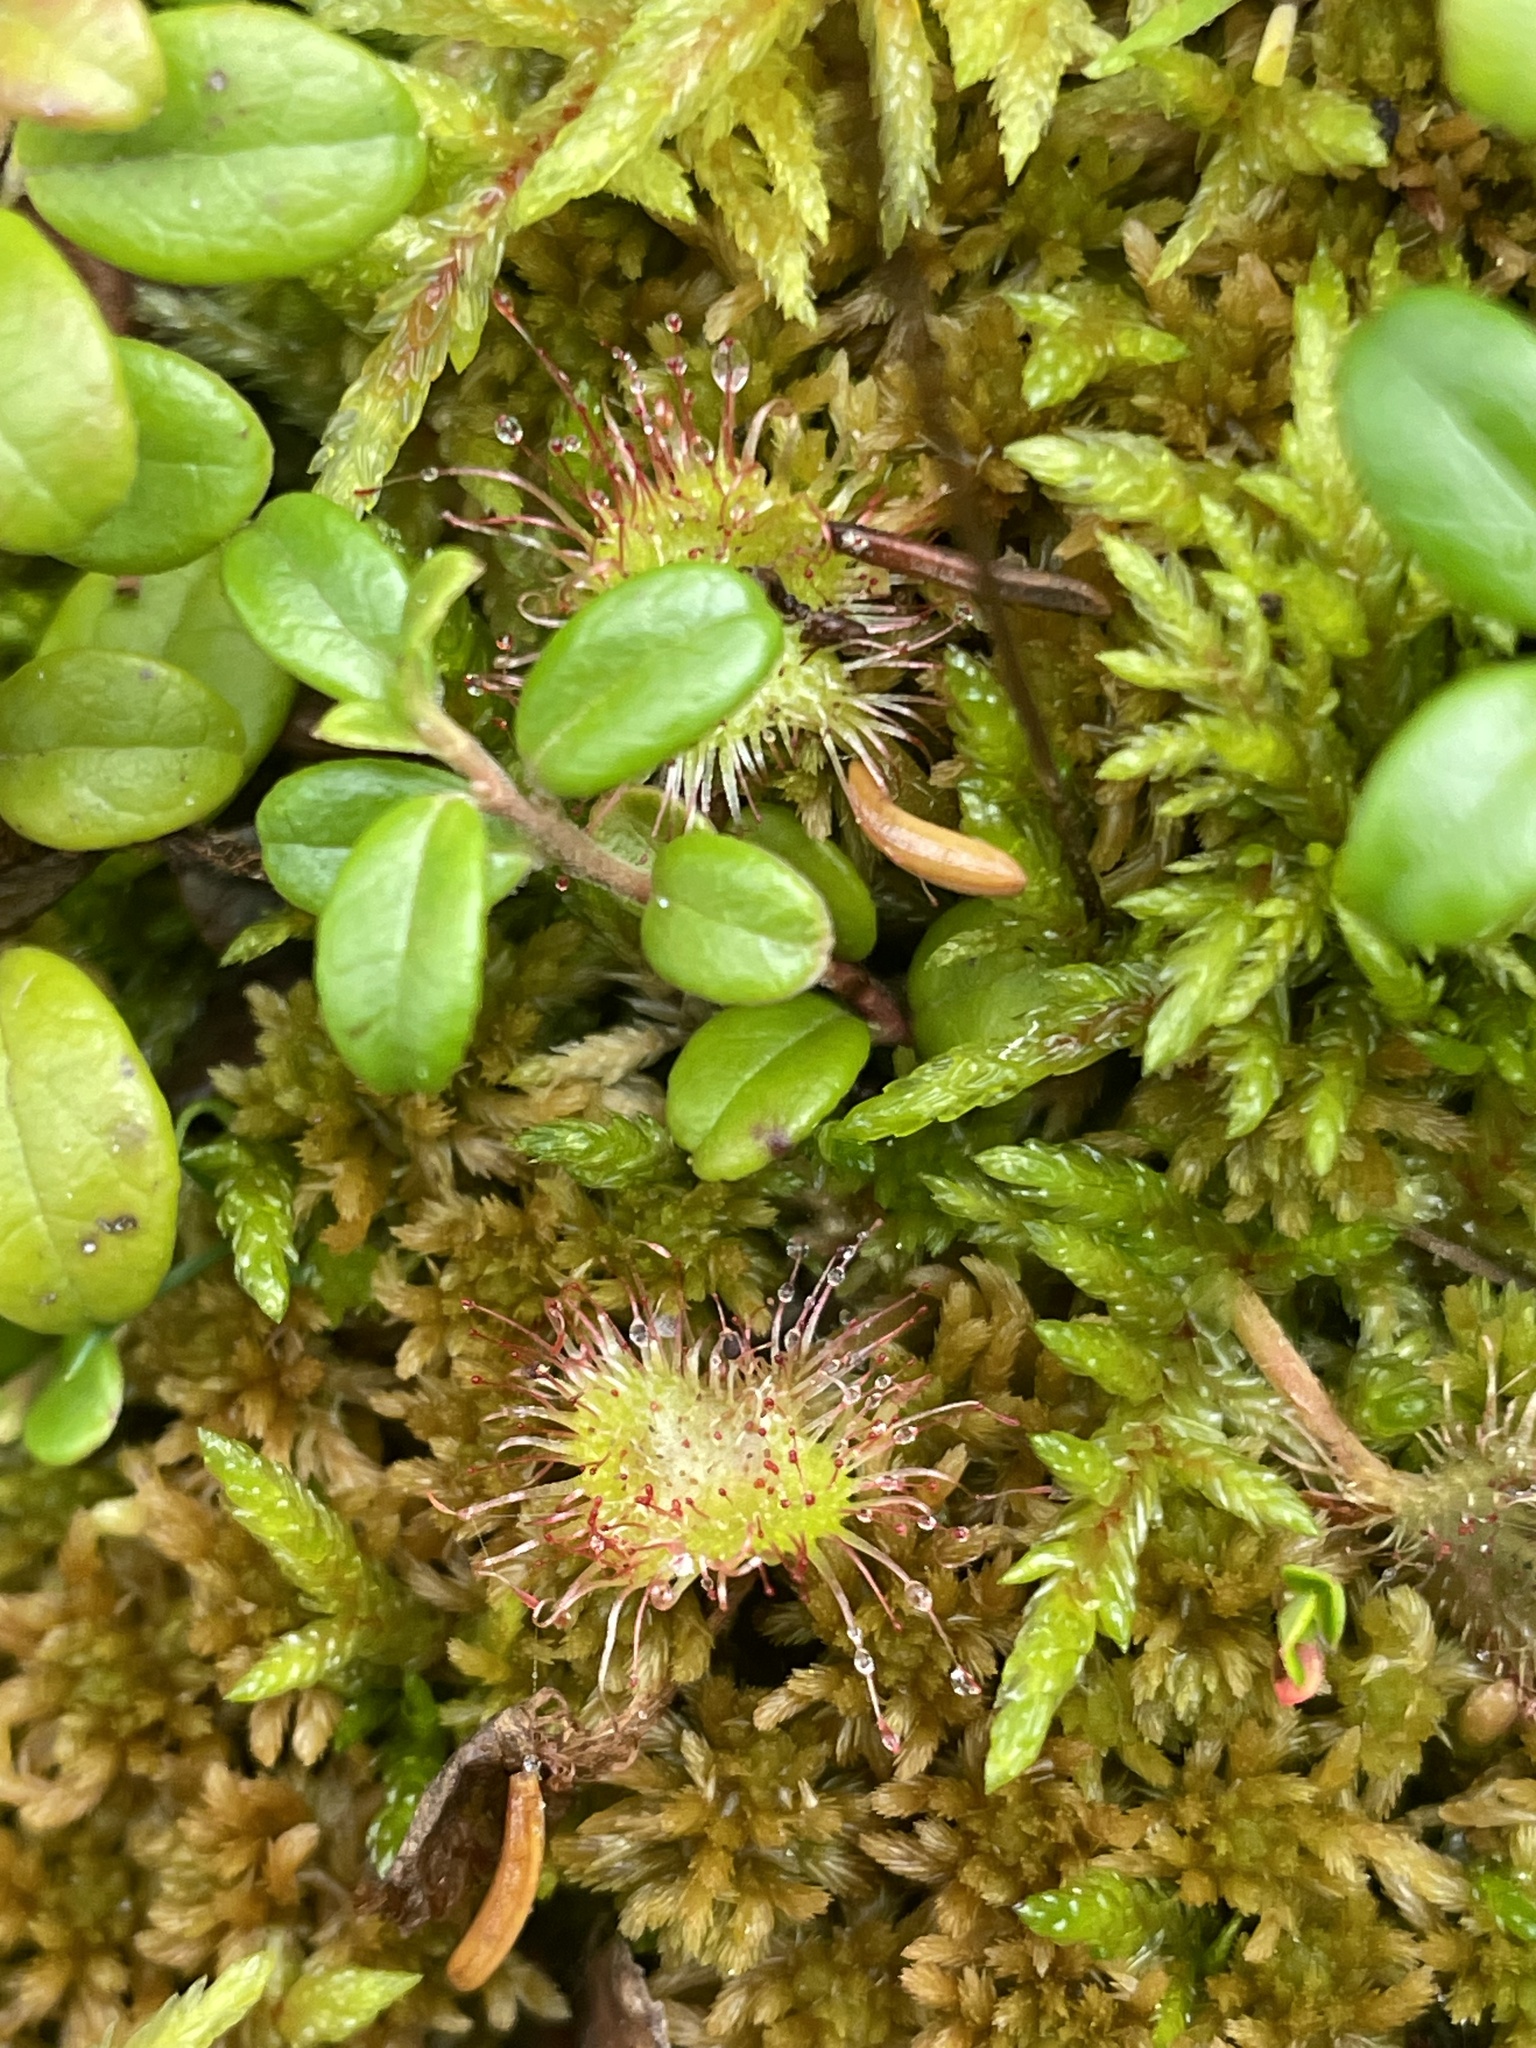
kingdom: Plantae
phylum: Tracheophyta
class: Magnoliopsida
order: Caryophyllales
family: Droseraceae
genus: Drosera
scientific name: Drosera rotundifolia
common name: Round-leaved sundew
